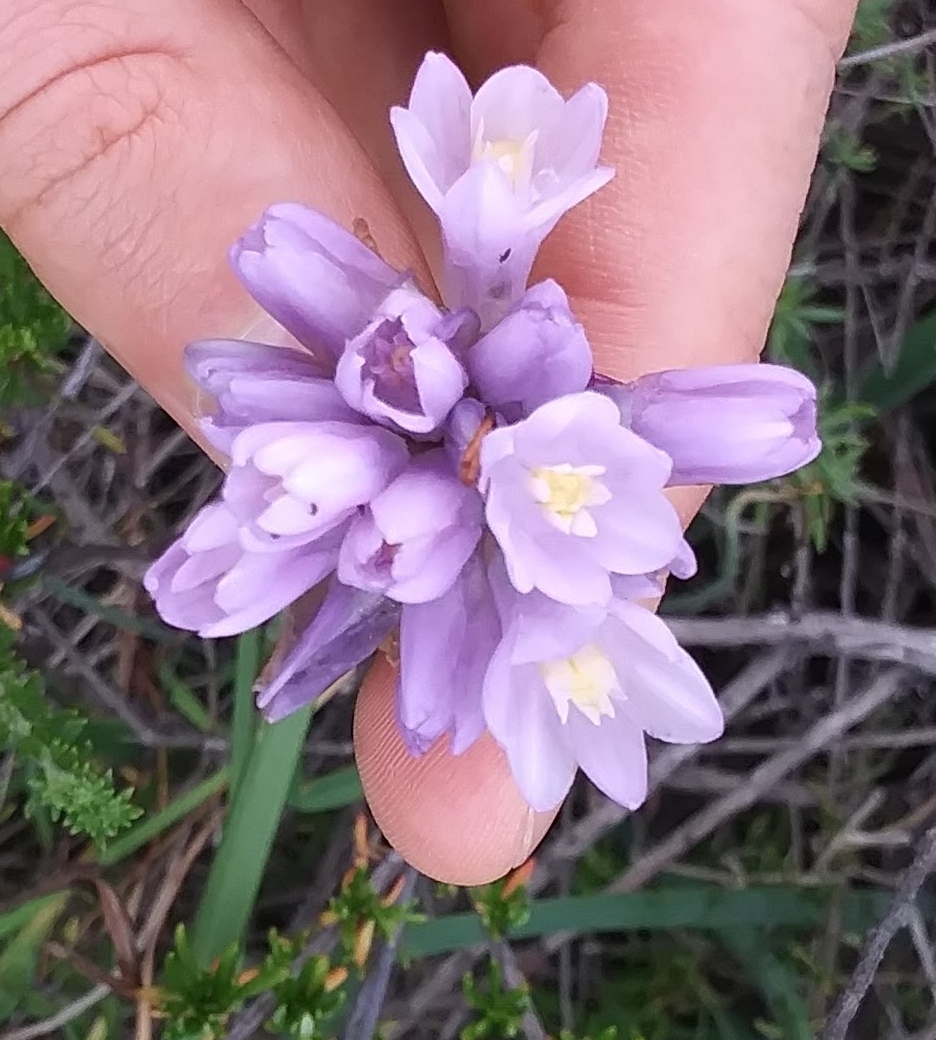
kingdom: Plantae
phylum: Tracheophyta
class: Liliopsida
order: Asparagales
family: Asparagaceae
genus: Dipterostemon
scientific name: Dipterostemon capitatus
